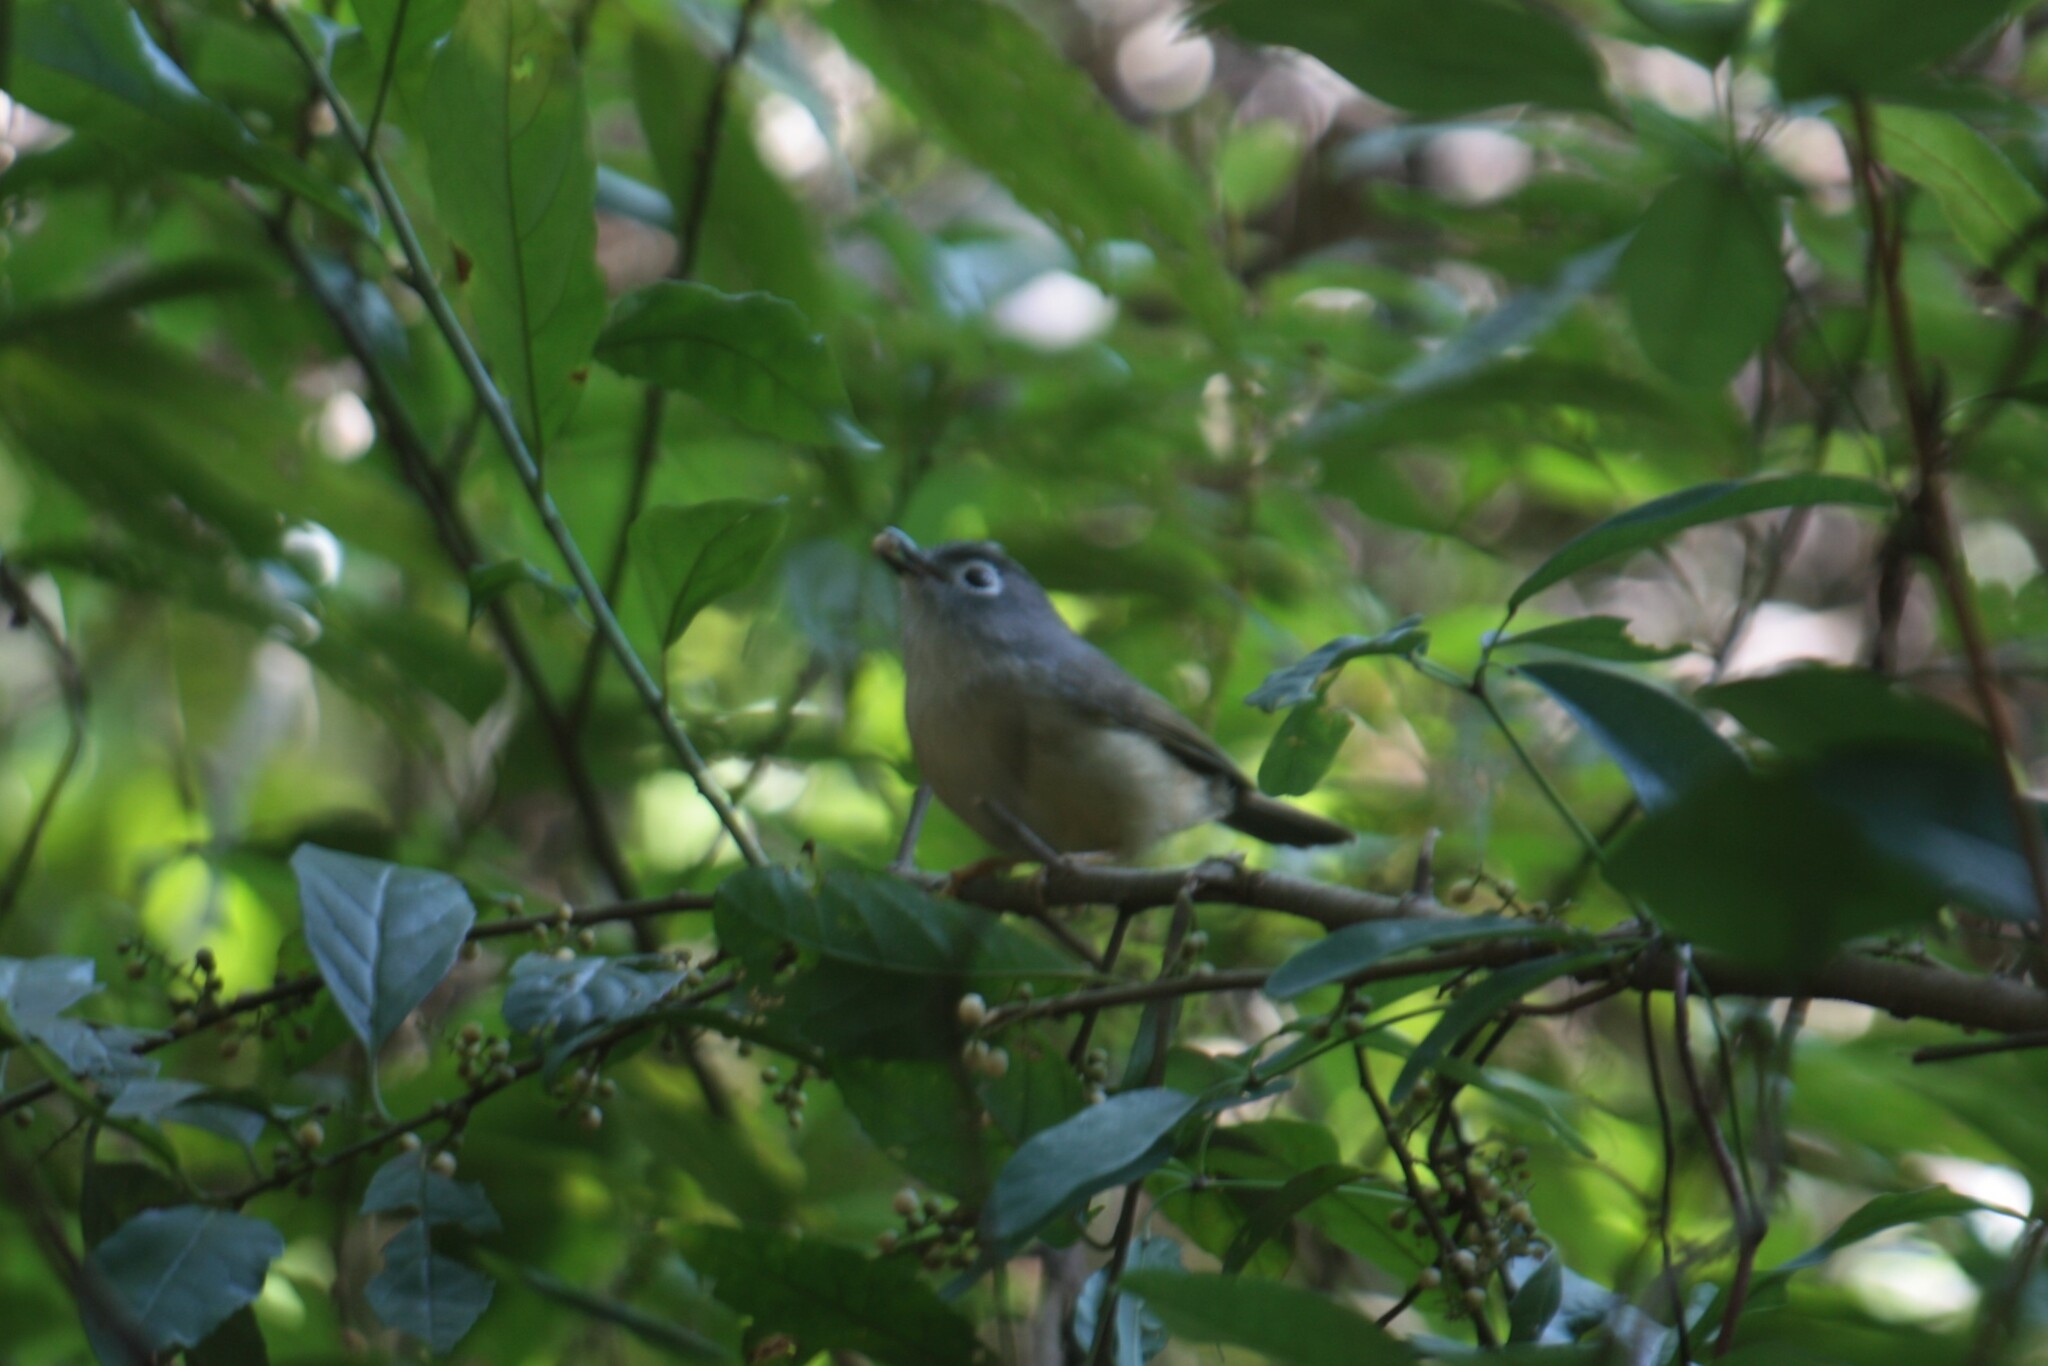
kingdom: Animalia
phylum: Chordata
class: Aves
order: Passeriformes
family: Pellorneidae
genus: Alcippe
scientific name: Alcippe morrisonia
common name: Grey-cheeked fulvetta
